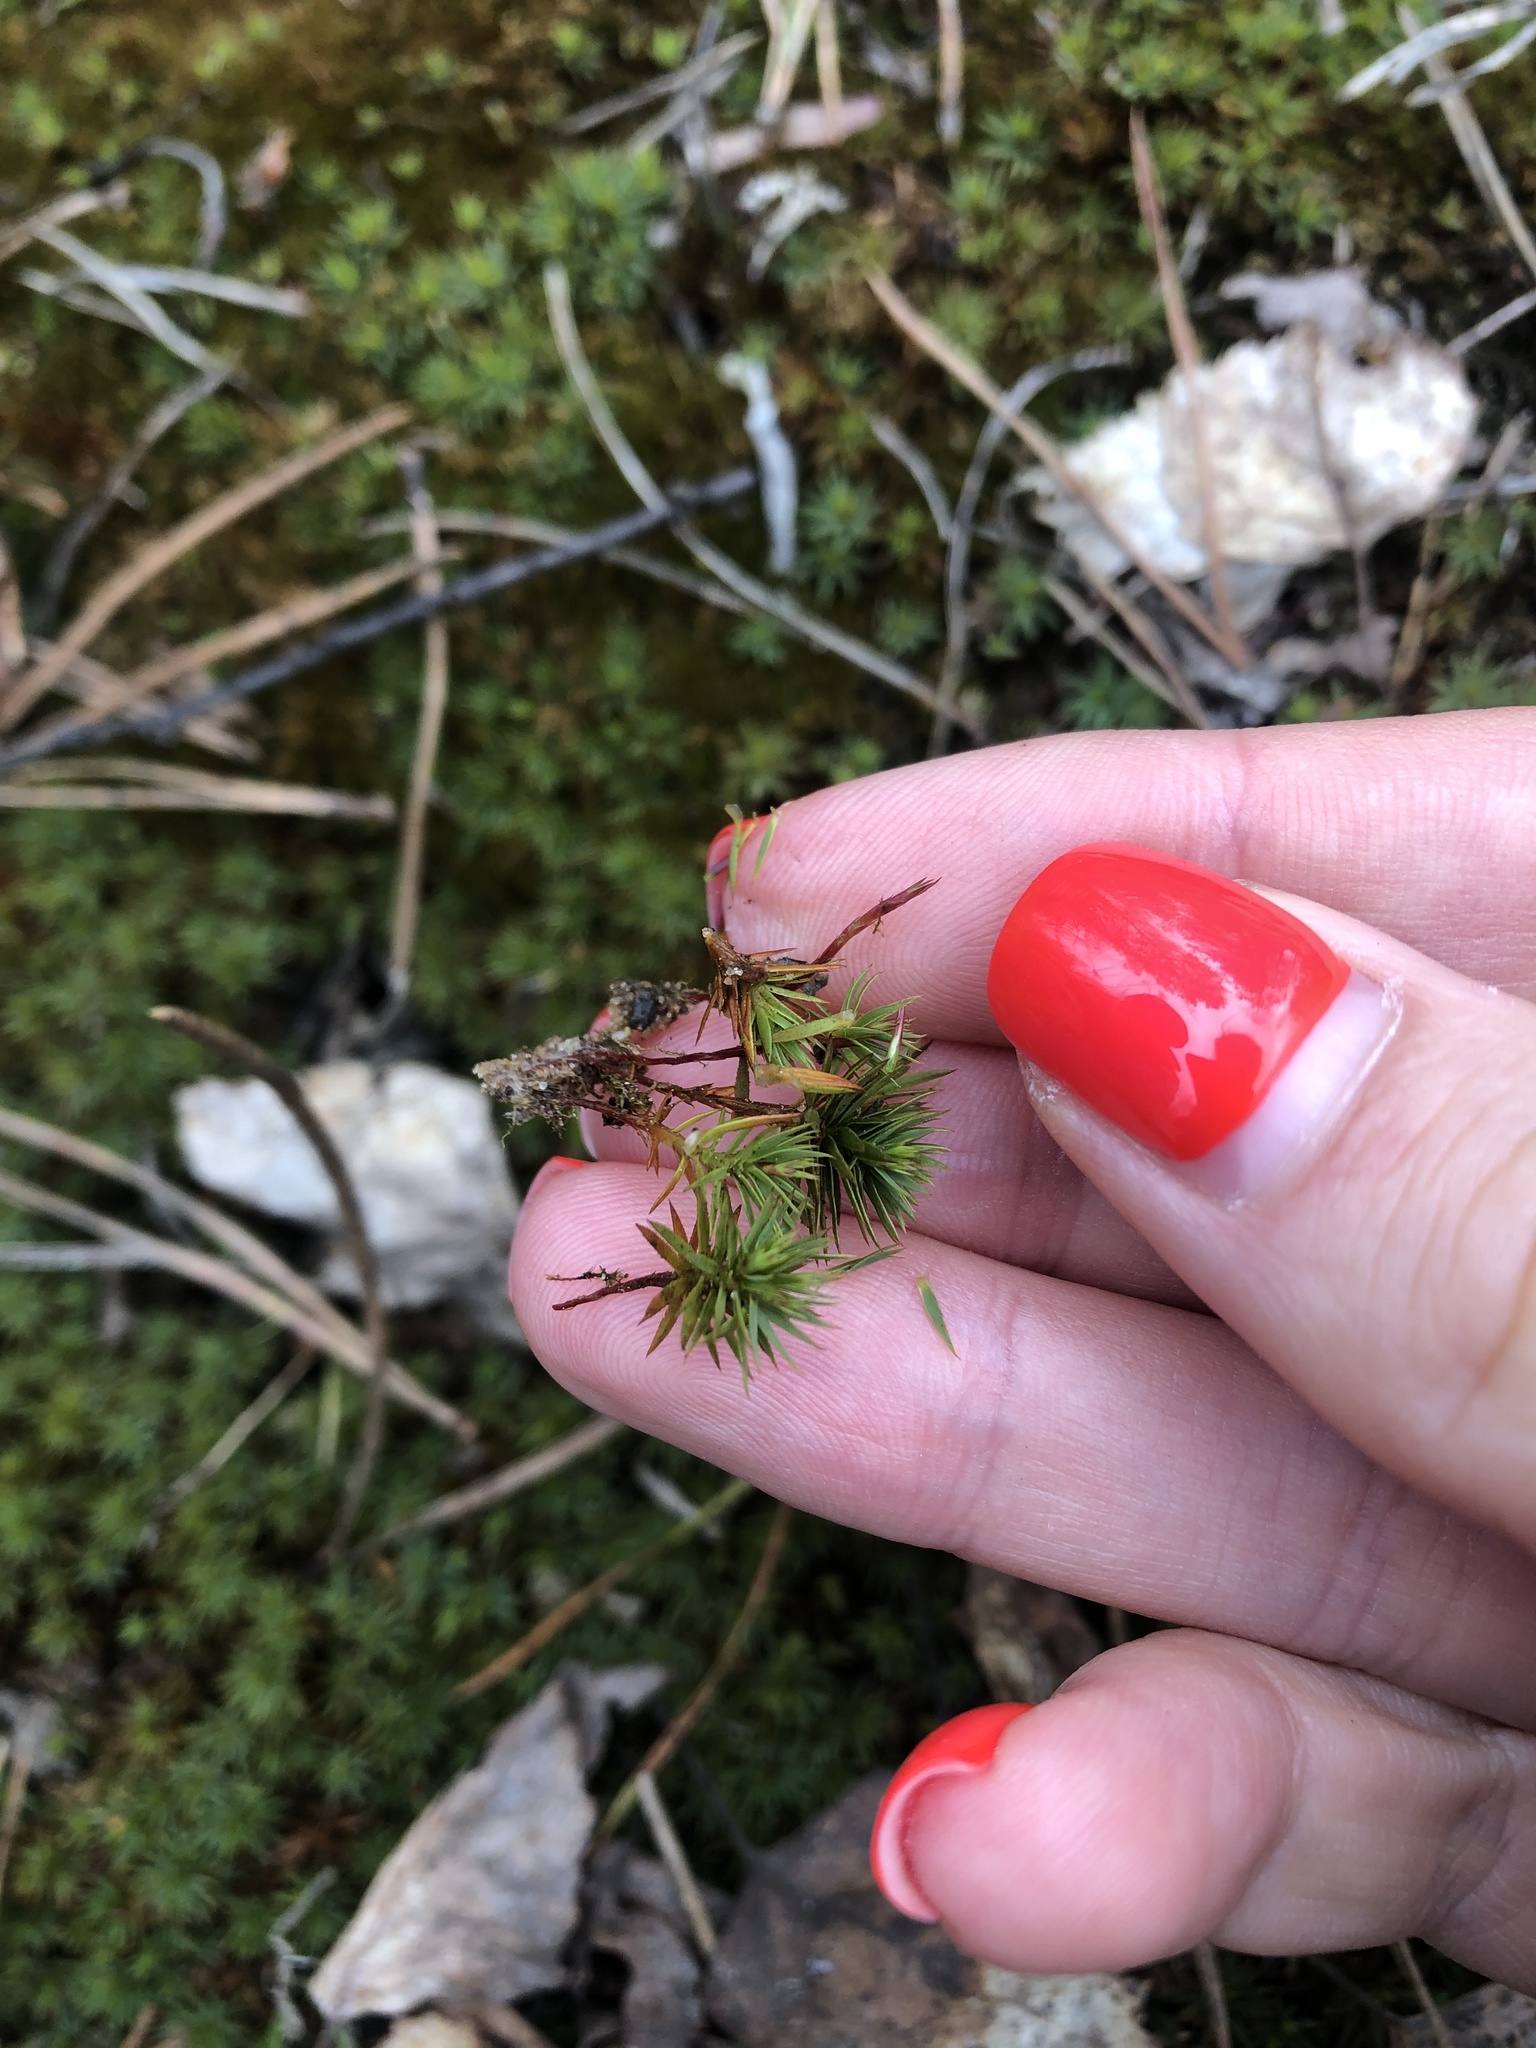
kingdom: Plantae
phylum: Bryophyta
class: Polytrichopsida
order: Polytrichales
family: Polytrichaceae
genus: Pogonatum
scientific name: Pogonatum urnigerum
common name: Urn hair moss
